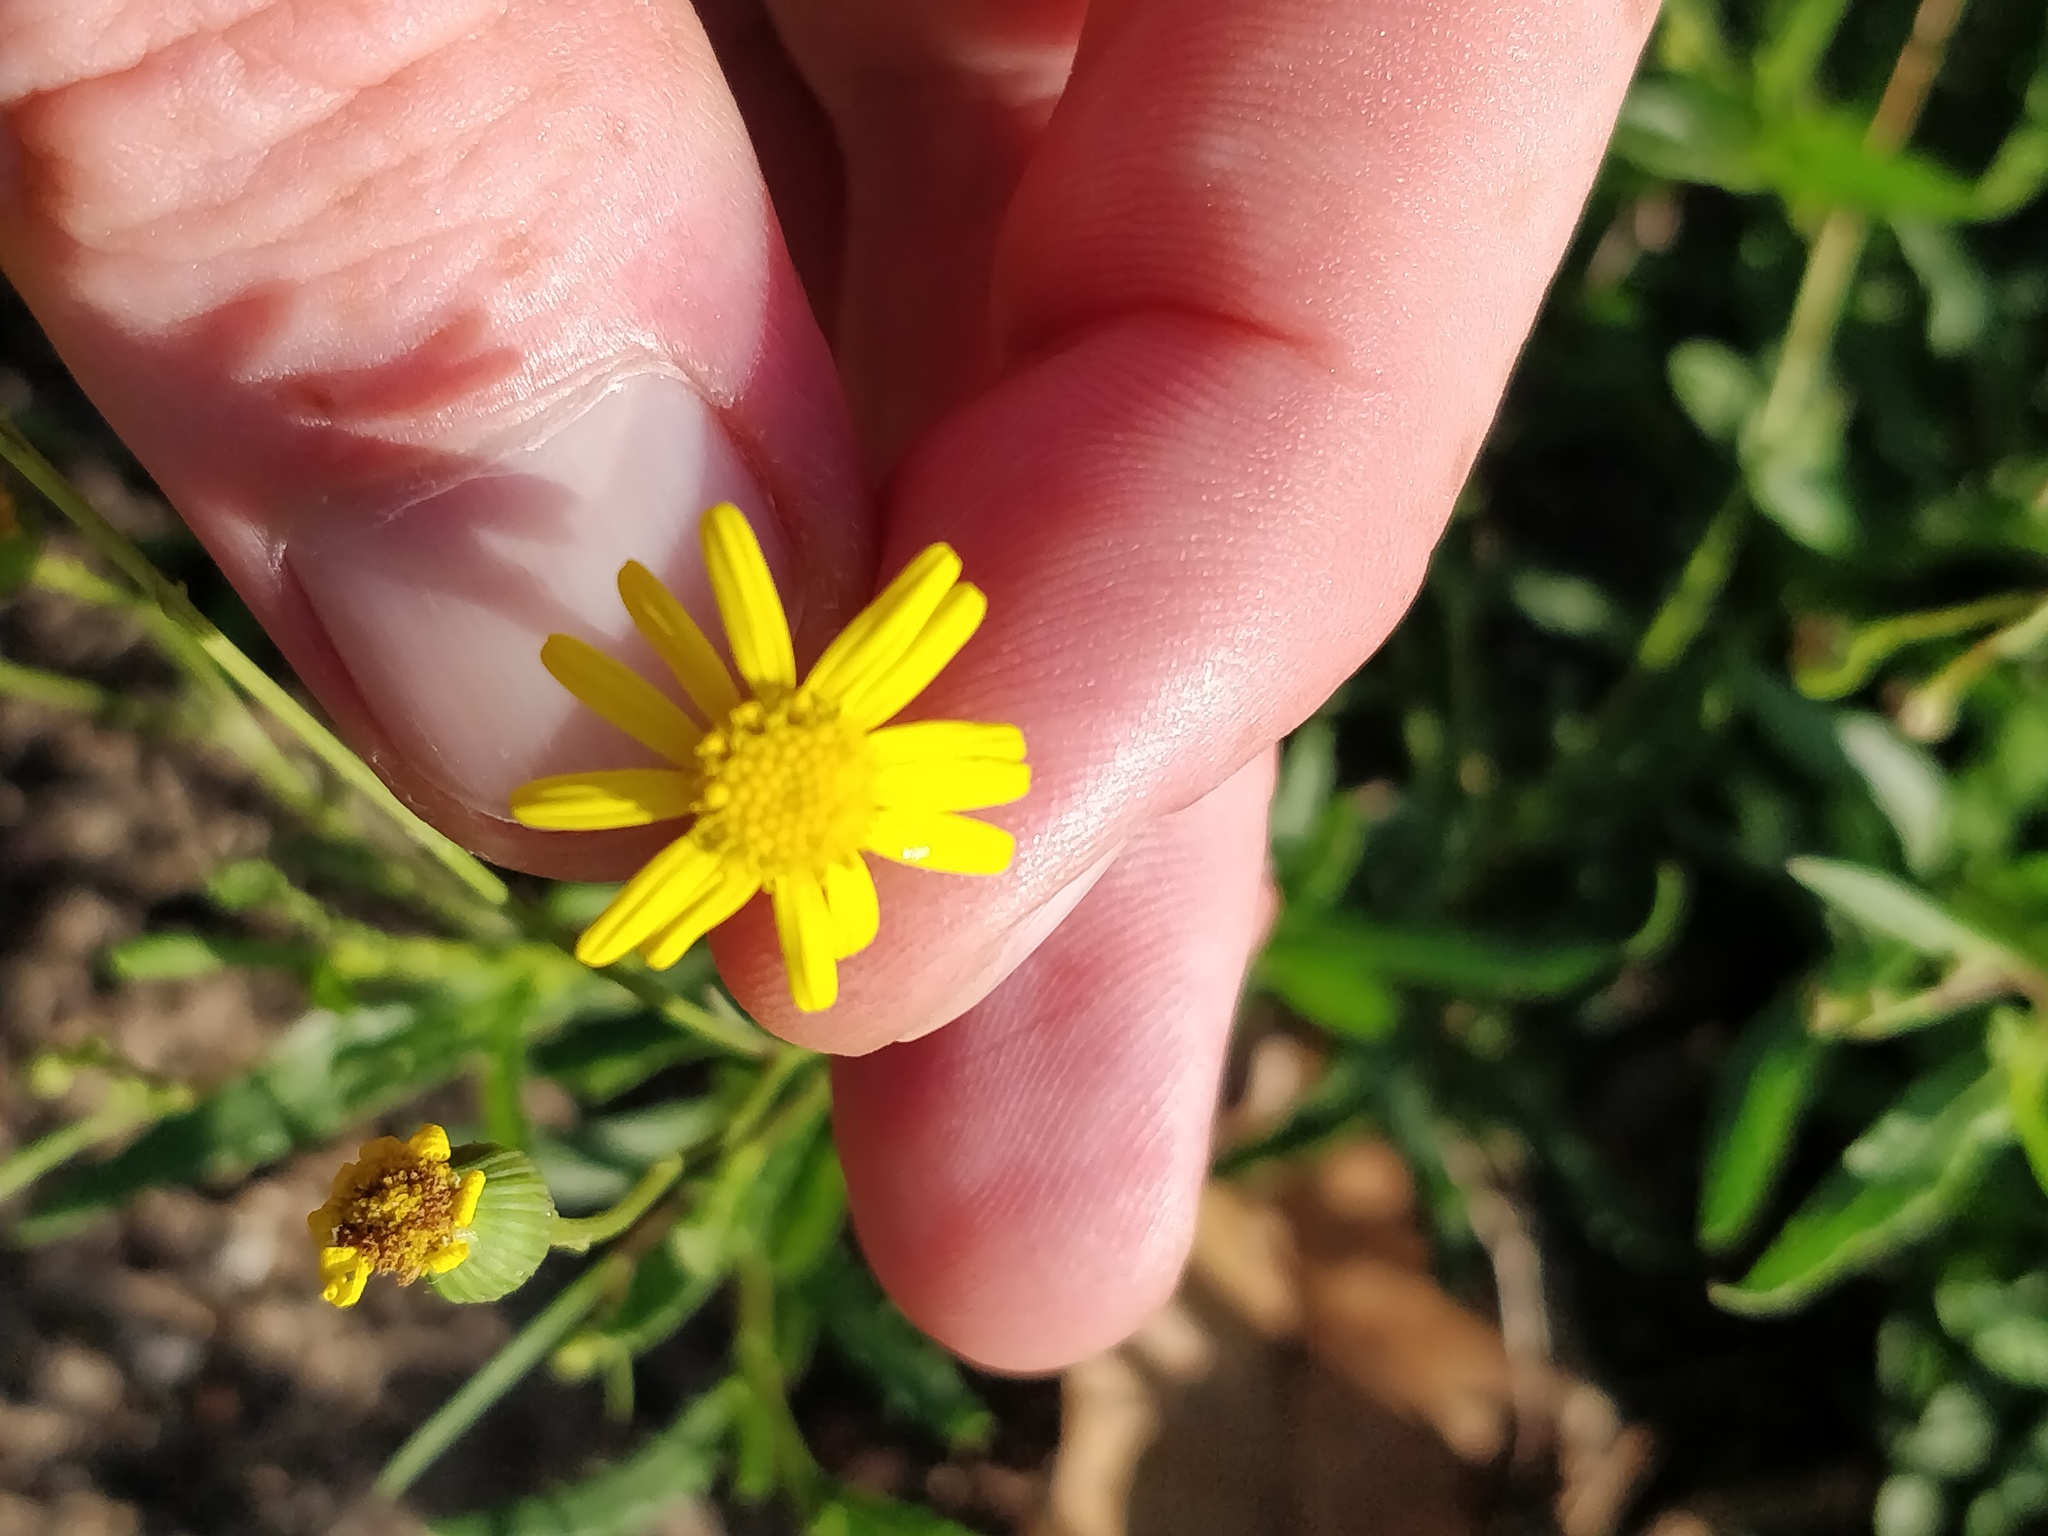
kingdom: Plantae
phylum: Tracheophyta
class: Magnoliopsida
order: Asterales
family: Asteraceae
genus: Senecio
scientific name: Senecio madagascariensis
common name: Madagascar ragwort
